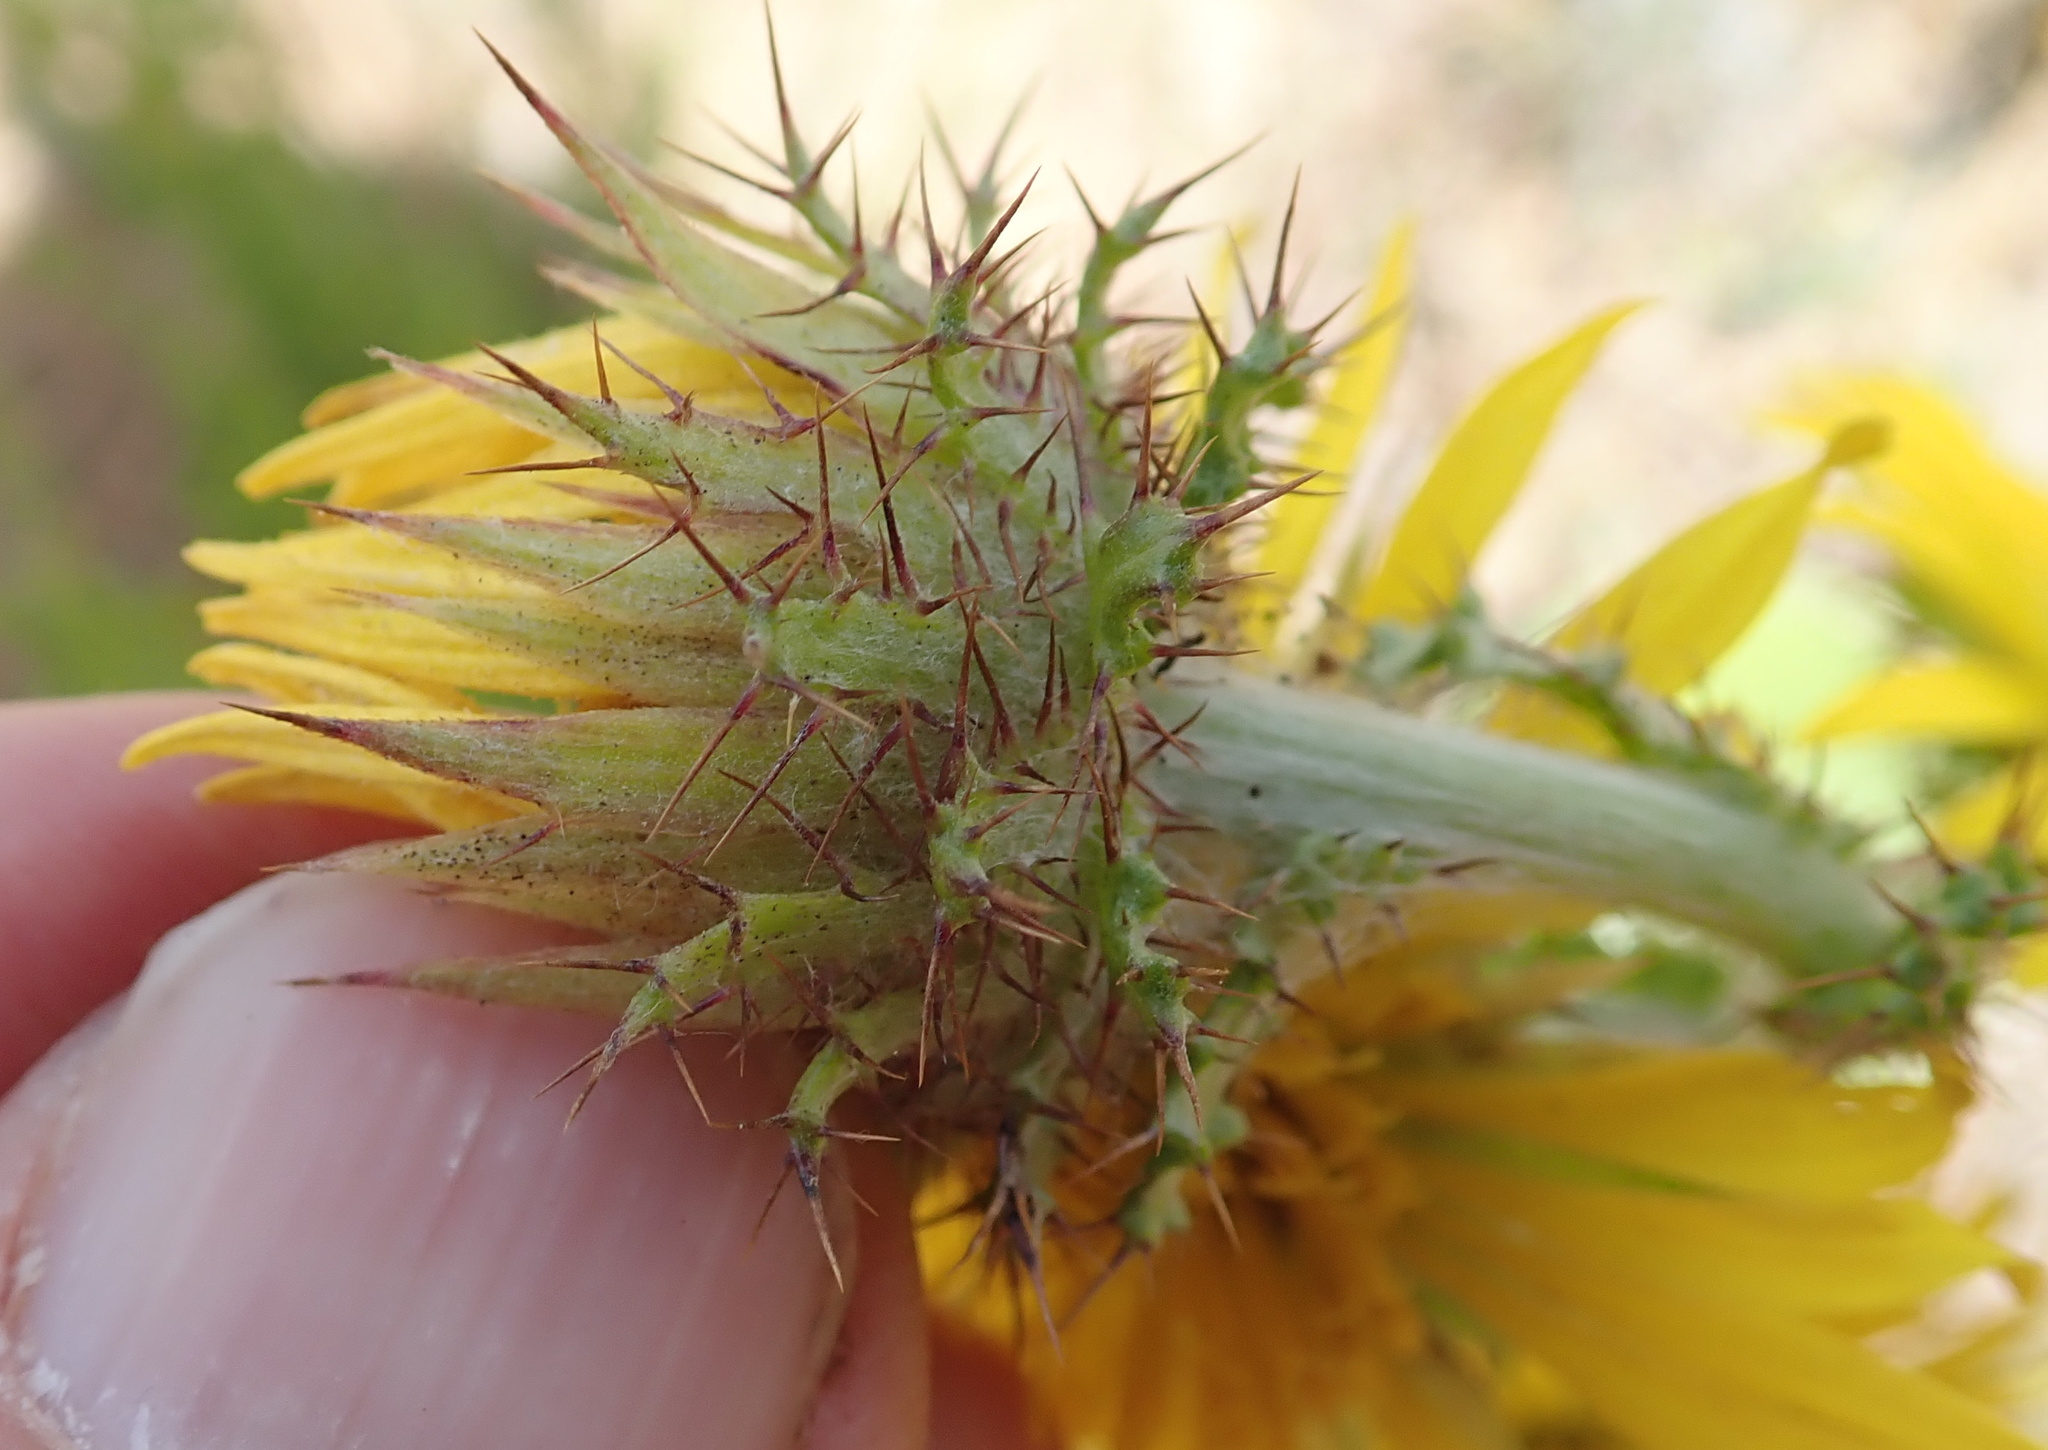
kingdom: Plantae
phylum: Tracheophyta
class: Magnoliopsida
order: Asterales
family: Asteraceae
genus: Berkheya
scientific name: Berkheya rhapontica
